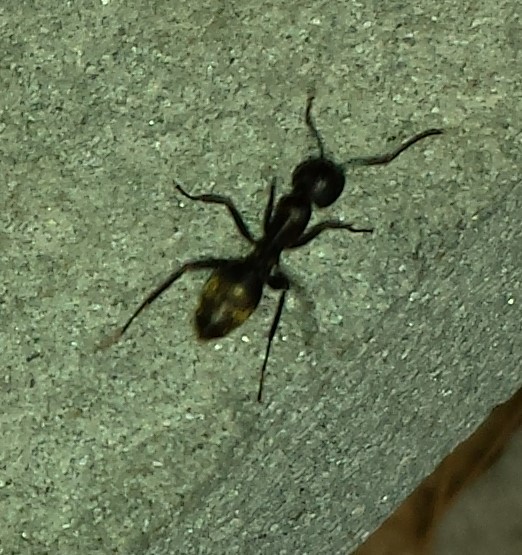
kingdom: Animalia
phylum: Arthropoda
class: Insecta
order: Hymenoptera
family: Formicidae
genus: Camponotus
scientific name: Camponotus pennsylvanicus
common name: Black carpenter ant
